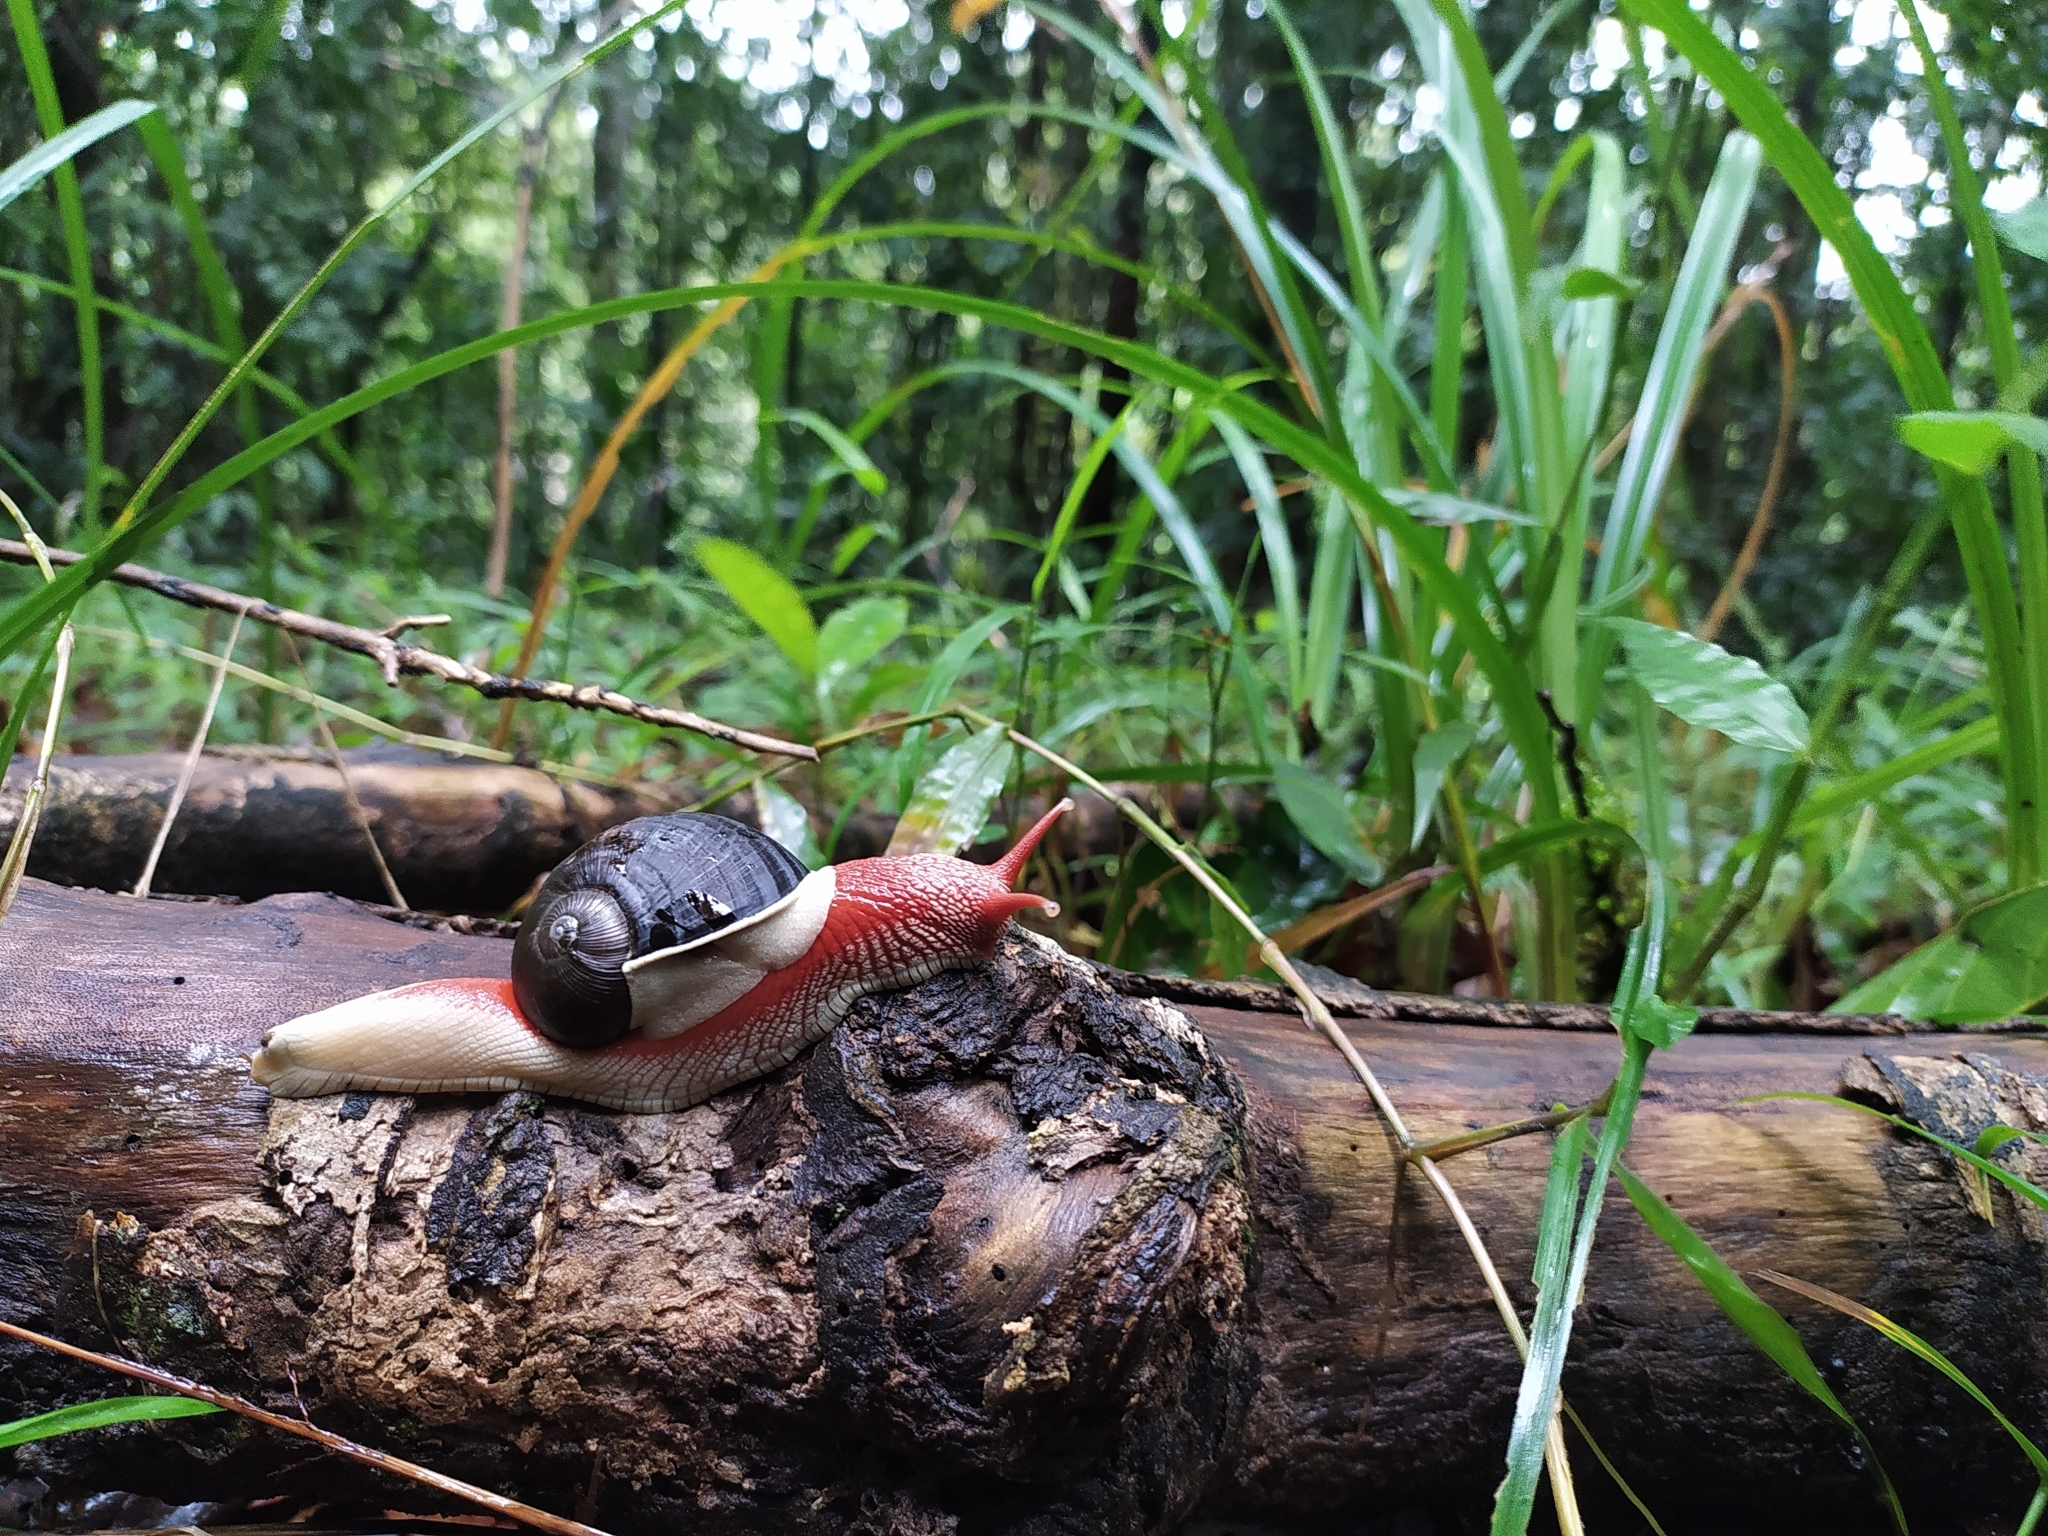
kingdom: Animalia
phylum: Mollusca
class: Gastropoda
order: Stylommatophora
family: Ariophantidae
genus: Indrella
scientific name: Indrella ampulla
